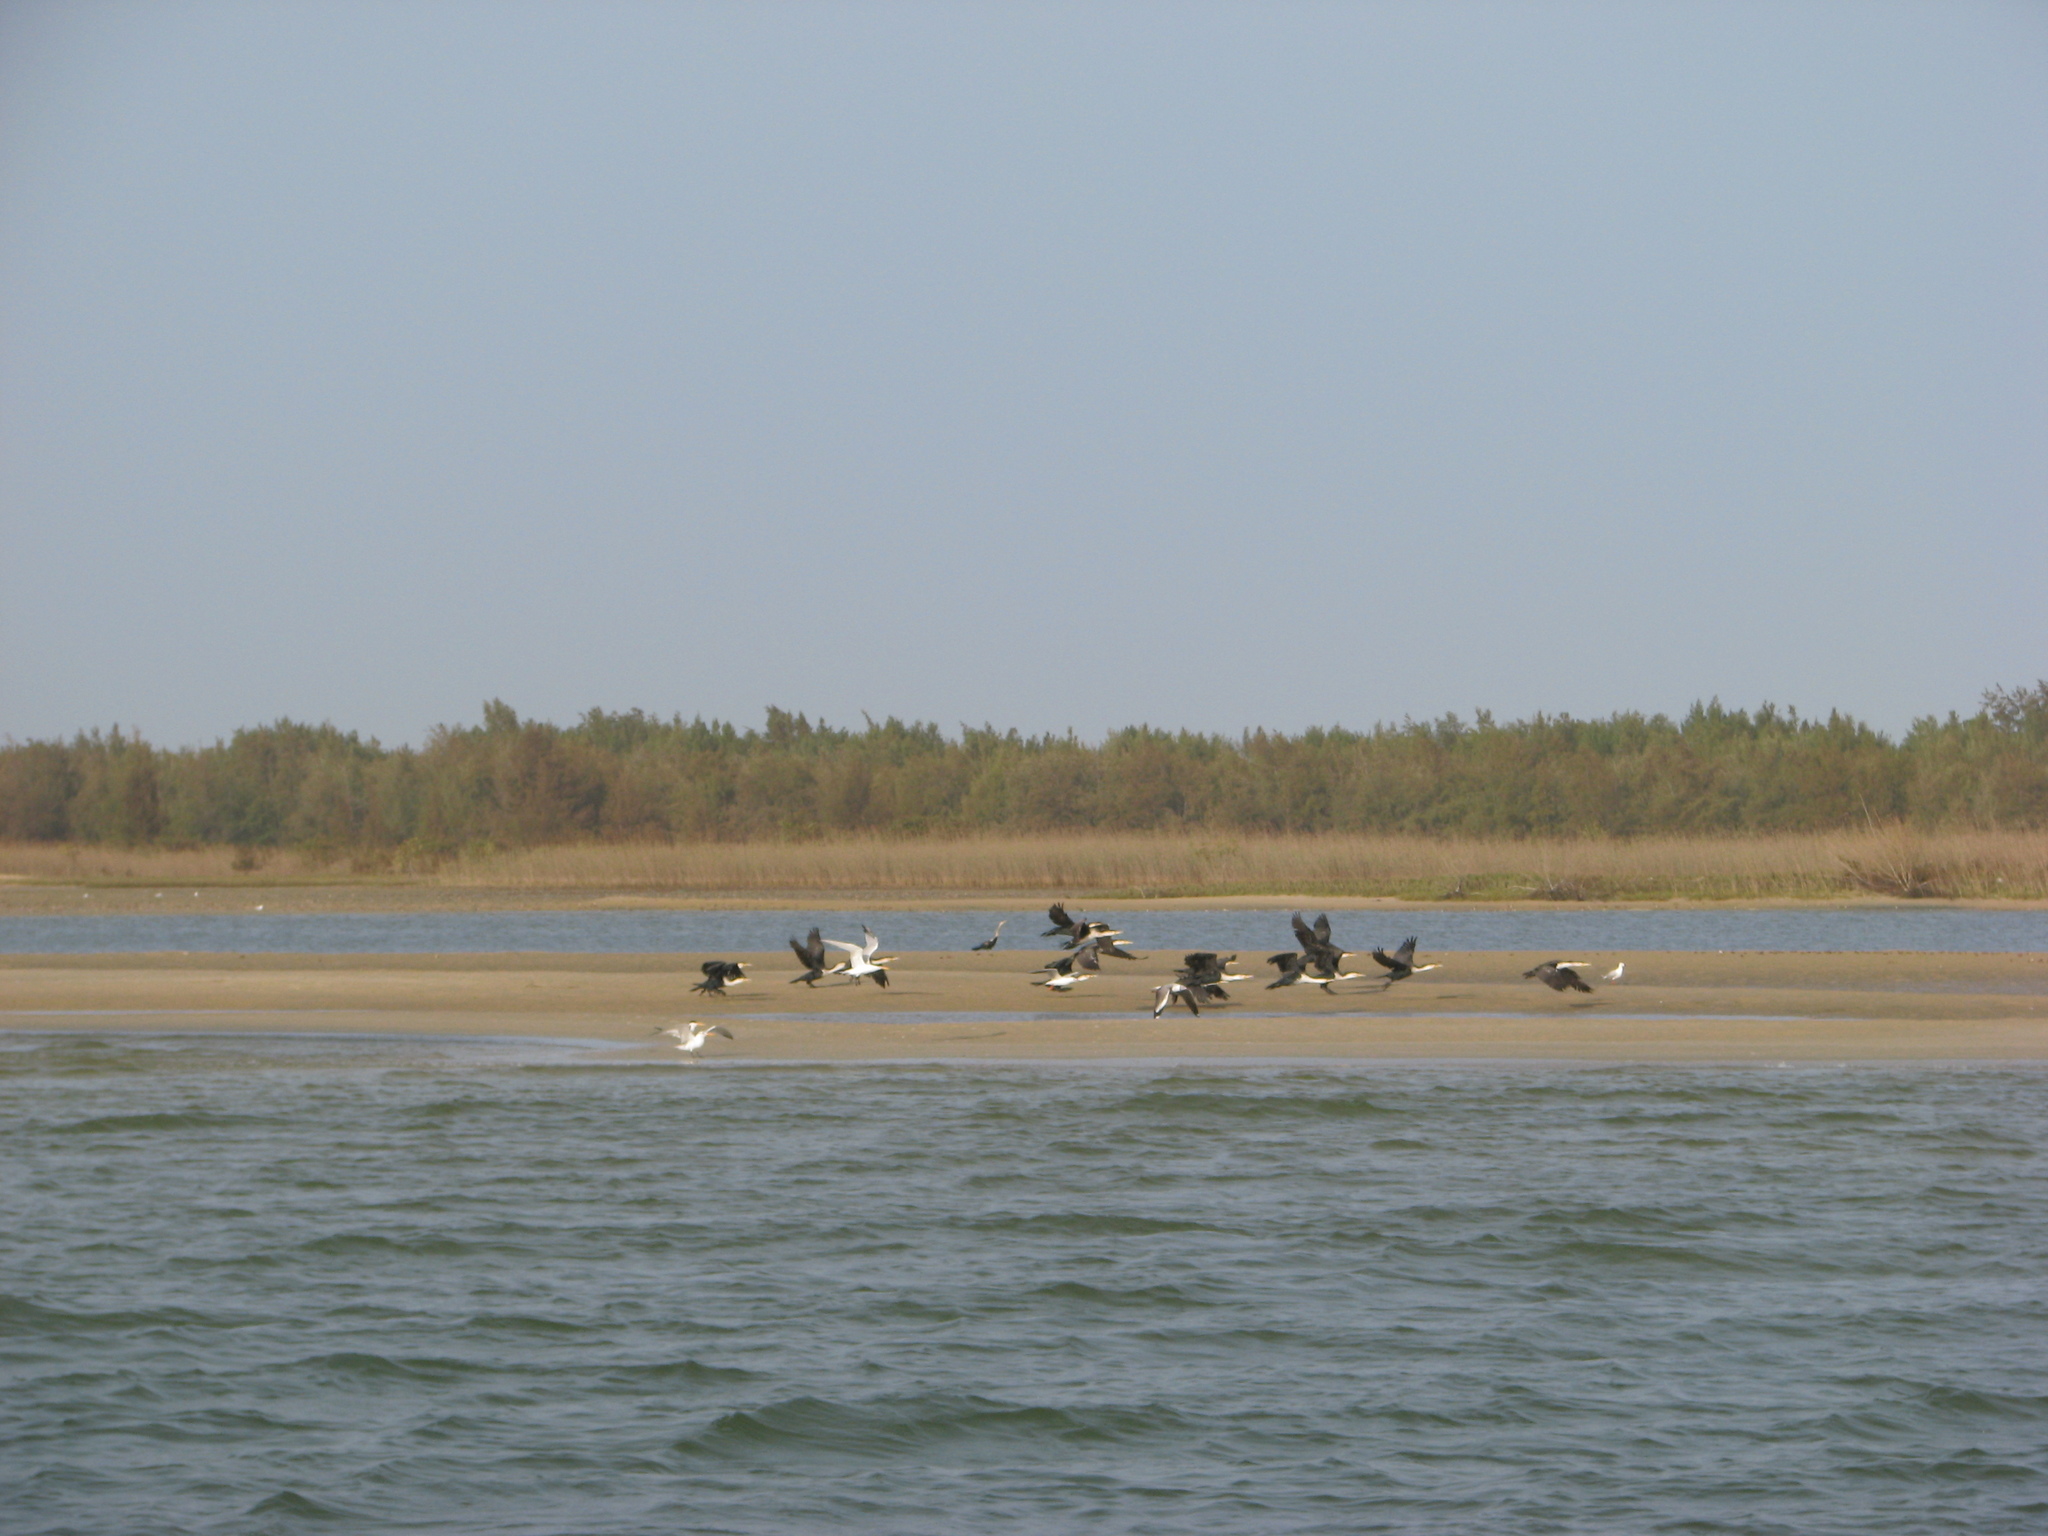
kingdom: Animalia
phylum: Chordata
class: Aves
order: Suliformes
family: Phalacrocoracidae
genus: Phalacrocorax
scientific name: Phalacrocorax carbo
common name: Great cormorant
